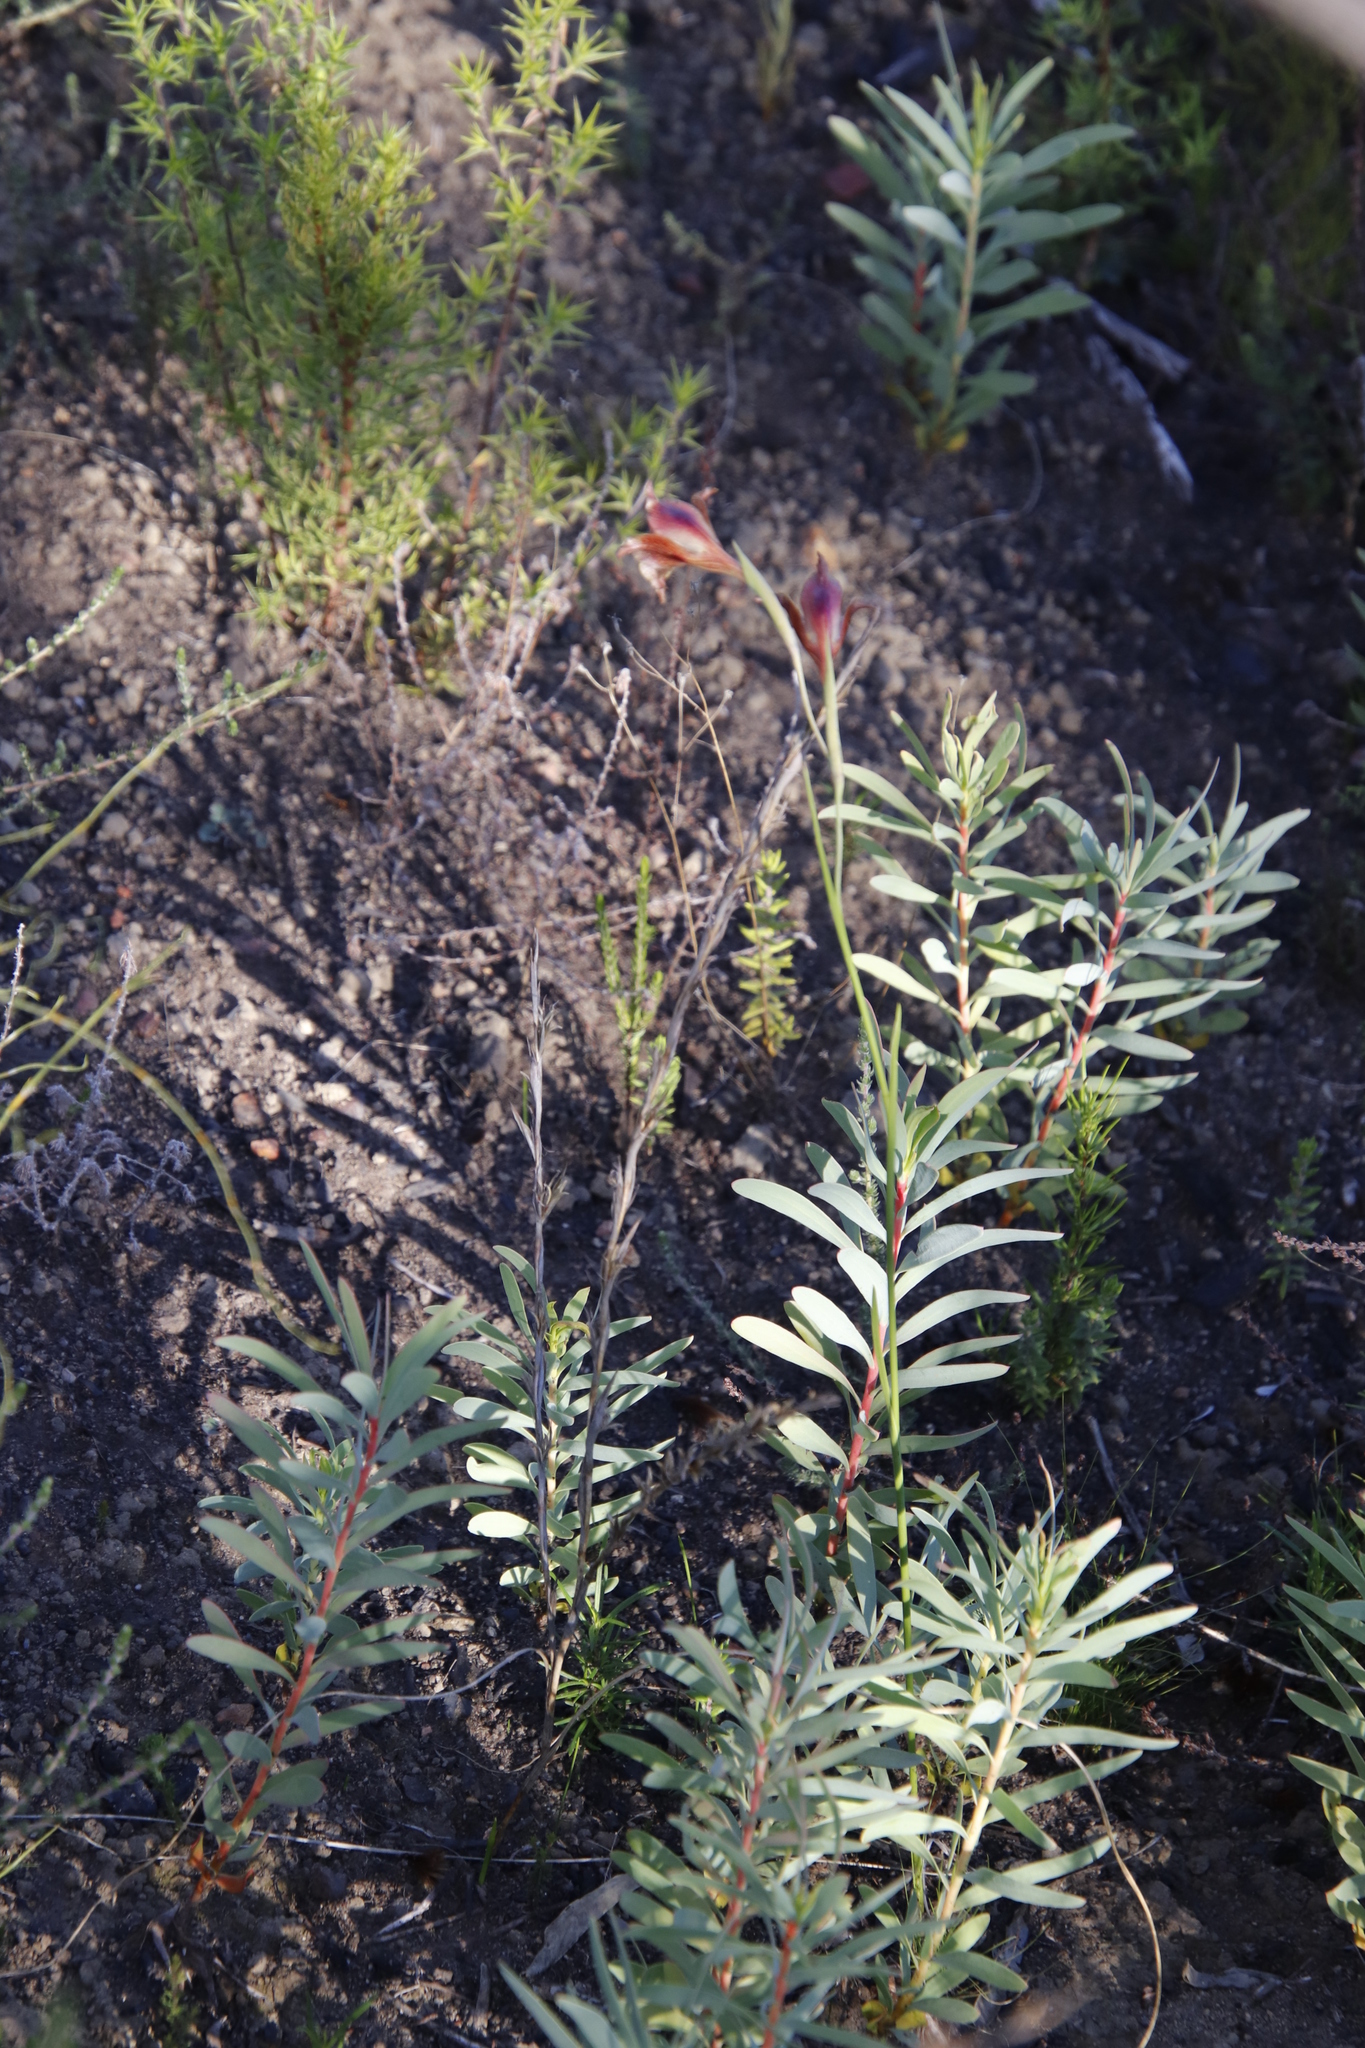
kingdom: Plantae
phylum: Tracheophyta
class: Liliopsida
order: Asparagales
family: Iridaceae
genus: Gladiolus
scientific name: Gladiolus maculatus
